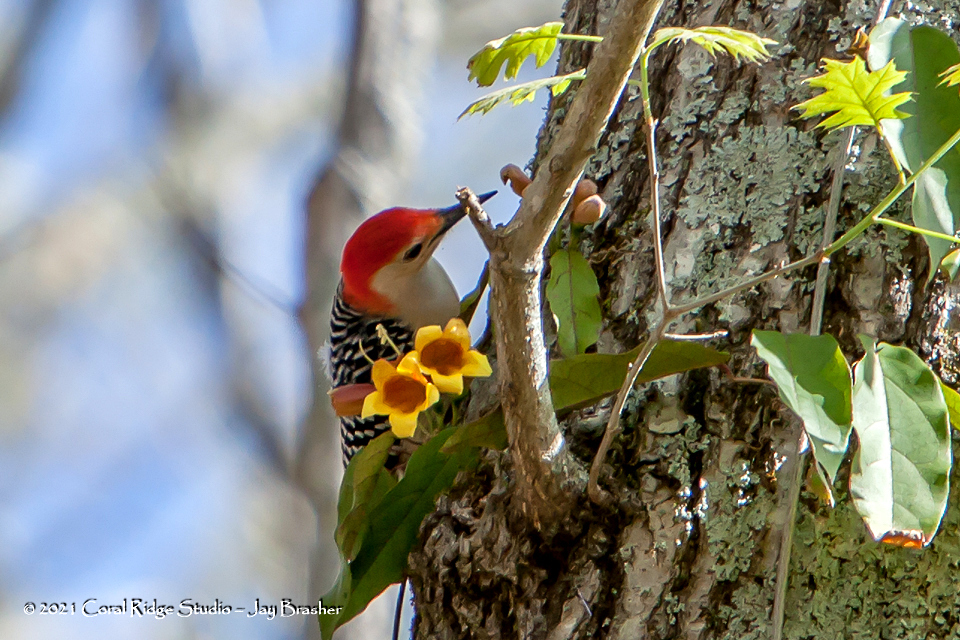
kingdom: Animalia
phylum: Chordata
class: Aves
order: Piciformes
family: Picidae
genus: Melanerpes
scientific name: Melanerpes carolinus
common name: Red-bellied woodpecker
